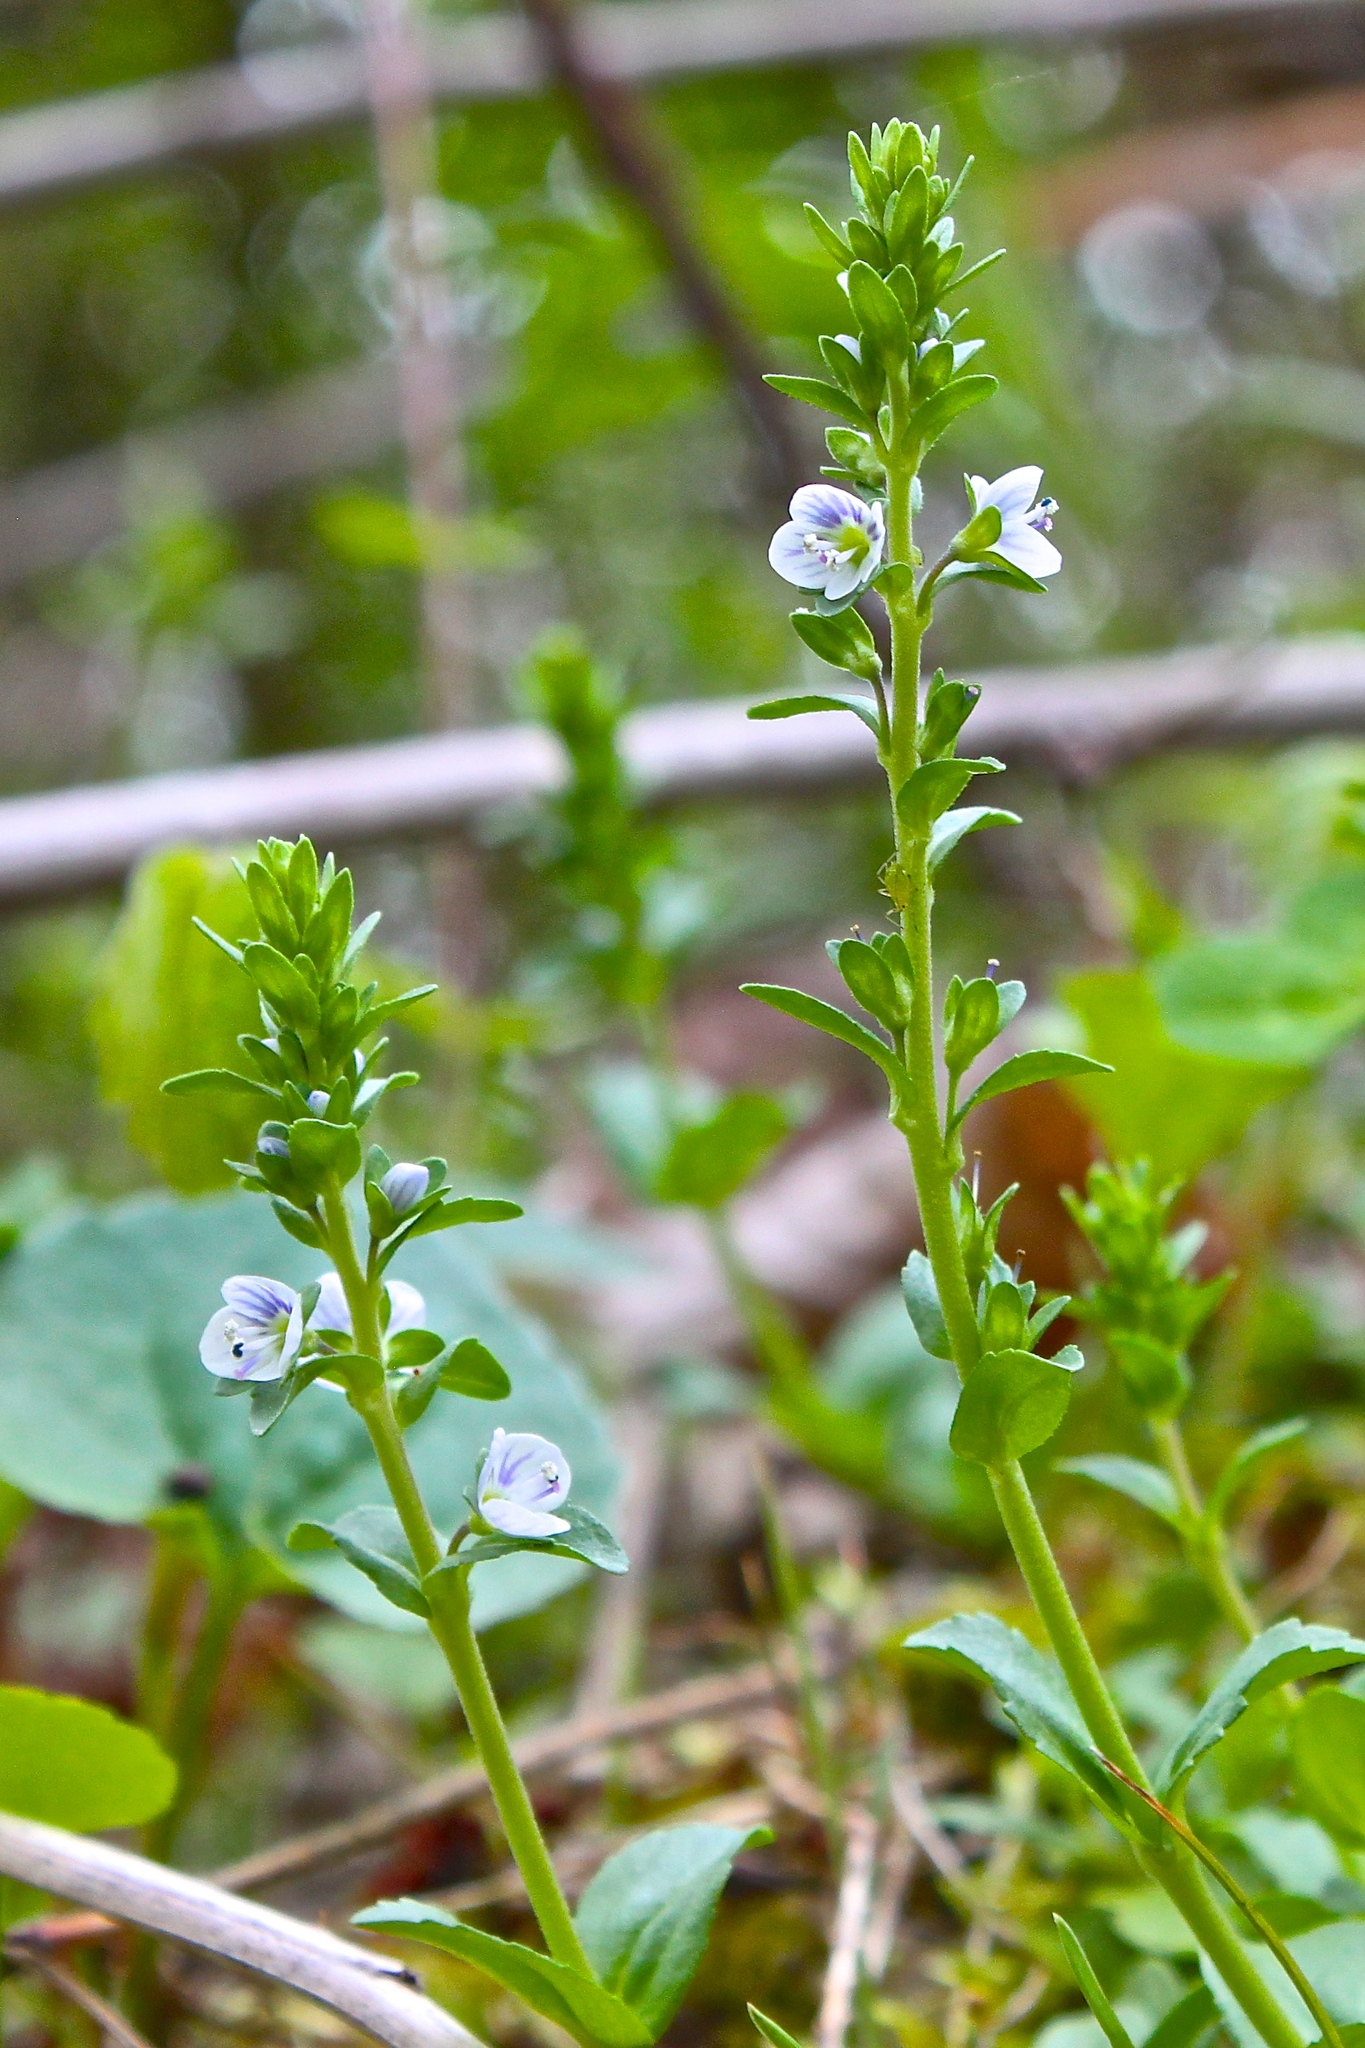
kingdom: Plantae
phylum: Tracheophyta
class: Magnoliopsida
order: Lamiales
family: Plantaginaceae
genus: Veronica
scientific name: Veronica serpyllifolia
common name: Thyme-leaved speedwell
